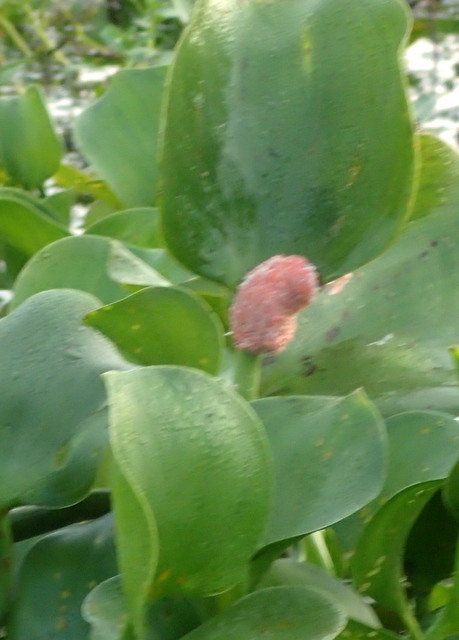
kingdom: Animalia
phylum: Mollusca
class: Gastropoda
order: Architaenioglossa
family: Ampullariidae
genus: Pomacea
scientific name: Pomacea maculata
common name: Giant applesnail
